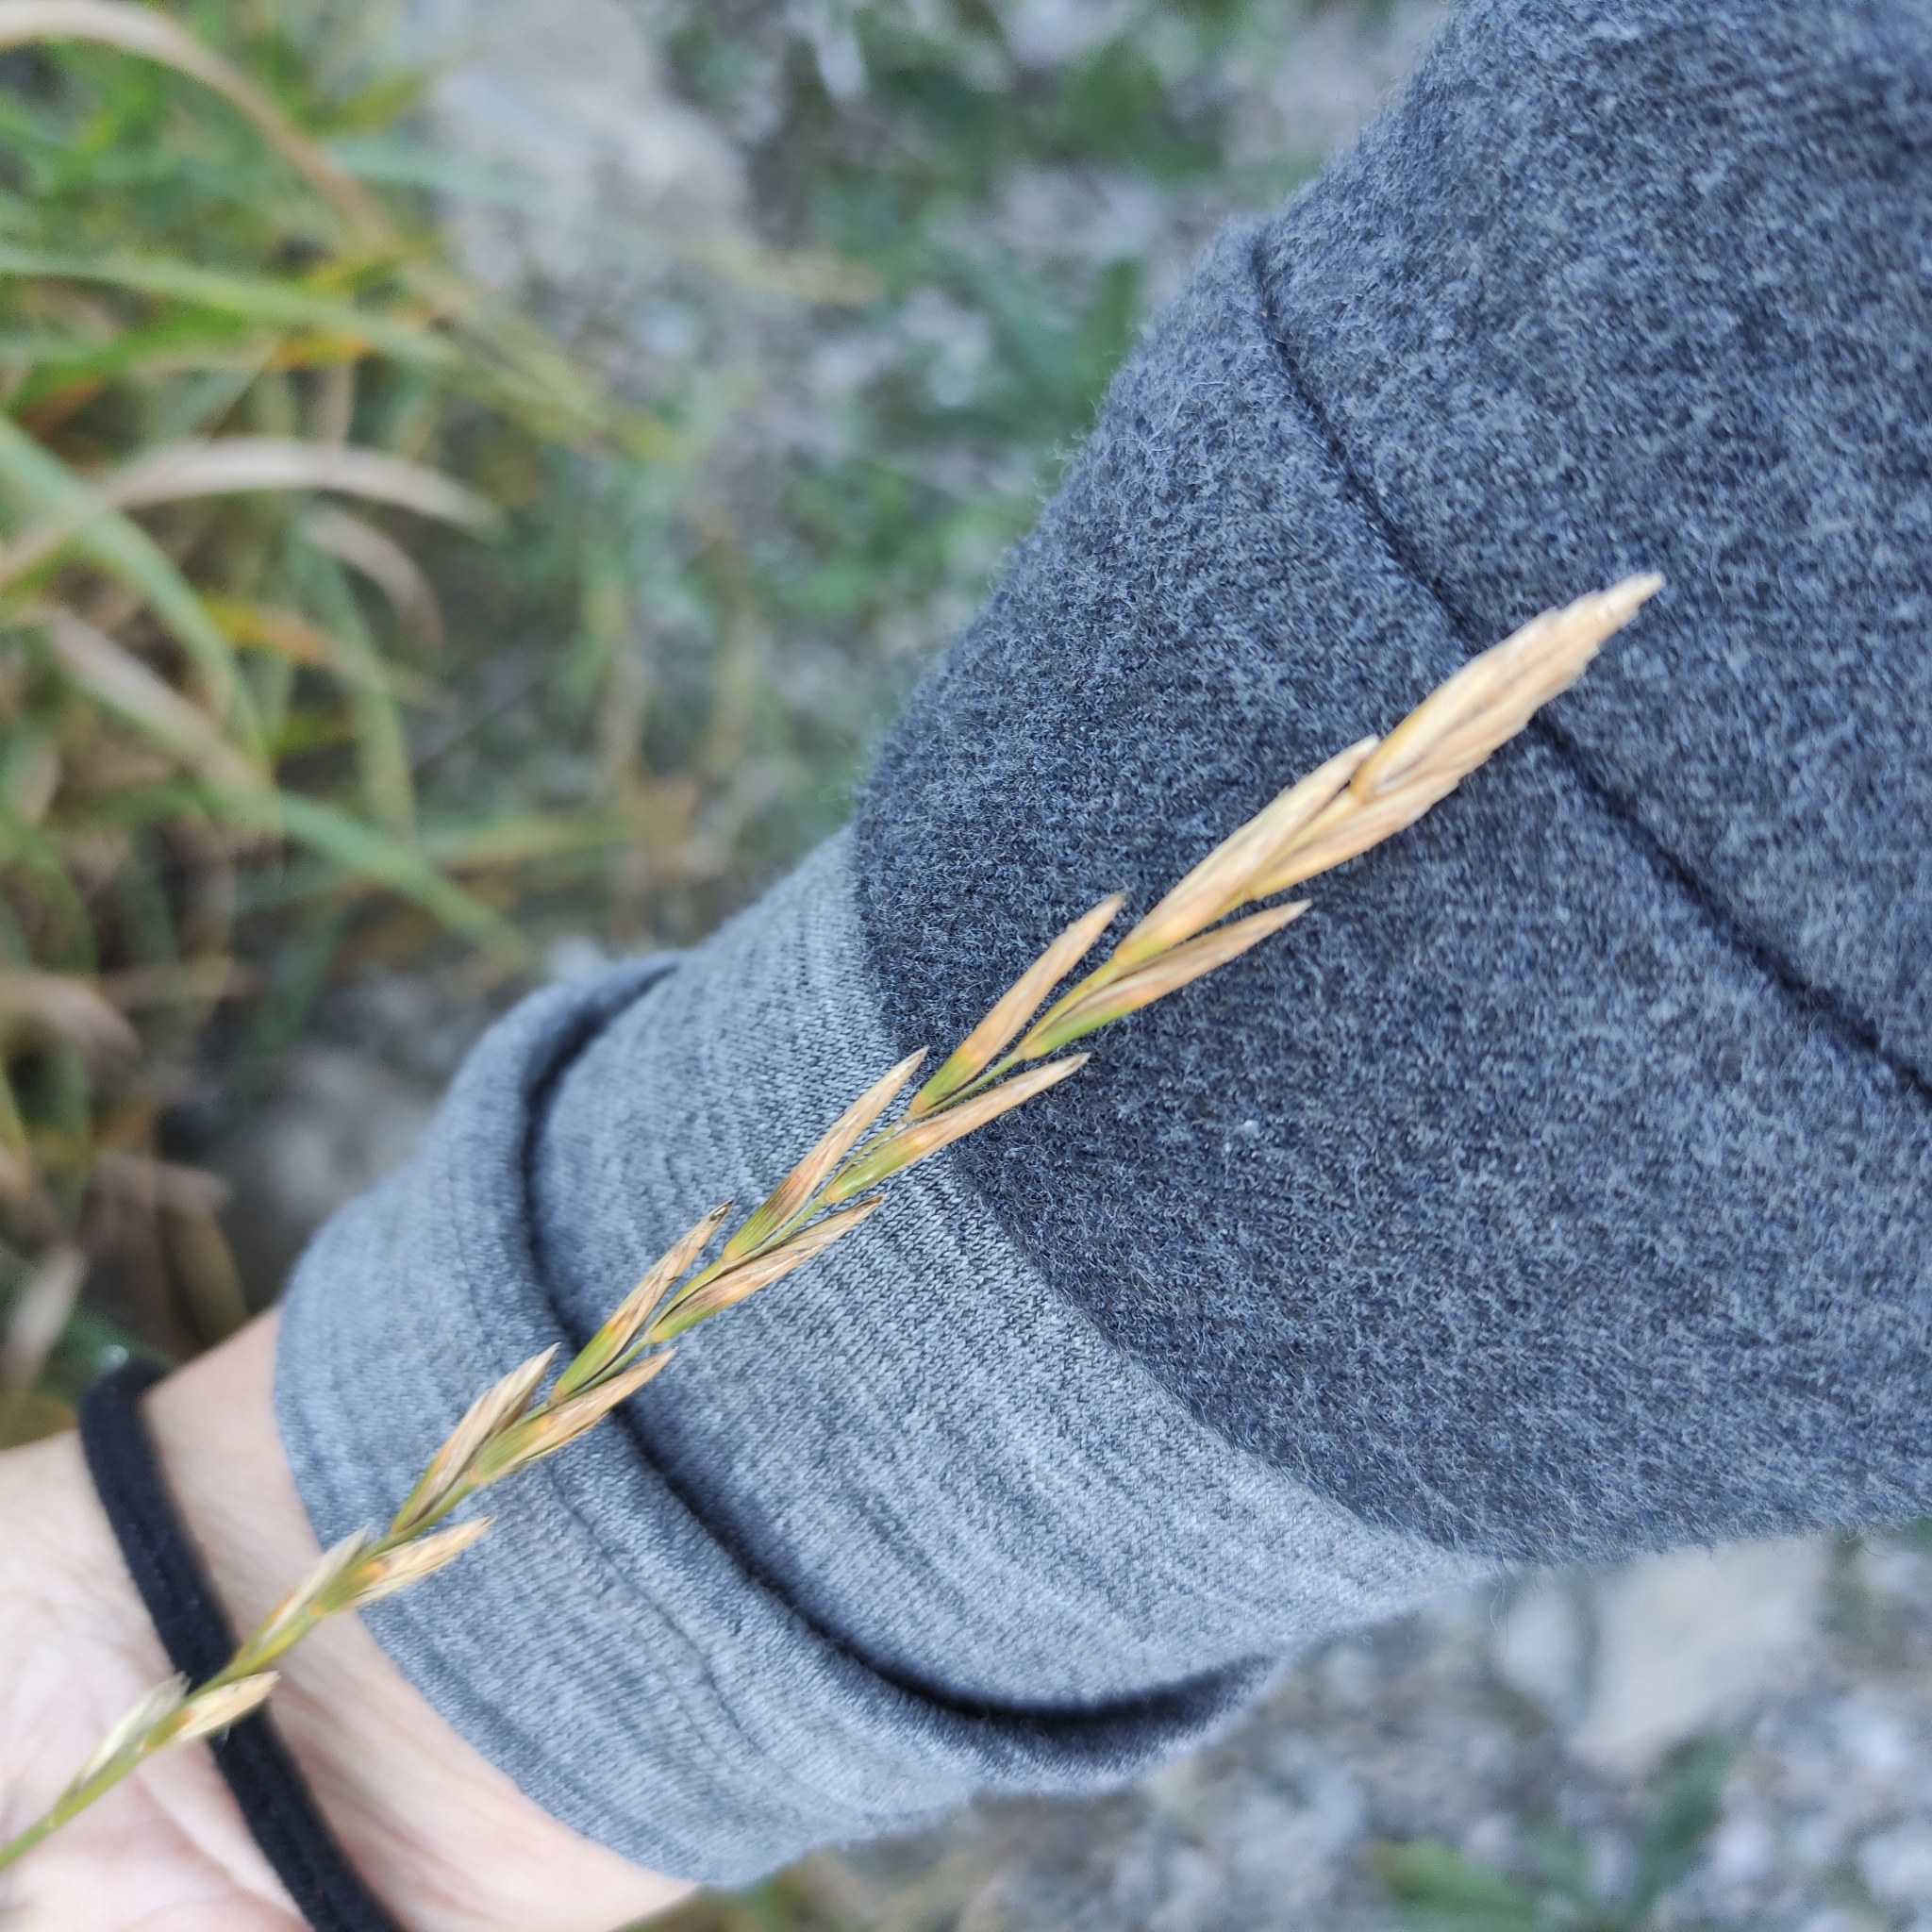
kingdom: Plantae
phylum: Tracheophyta
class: Liliopsida
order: Poales
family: Poaceae
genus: Elymus
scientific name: Elymus repens
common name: Quackgrass
